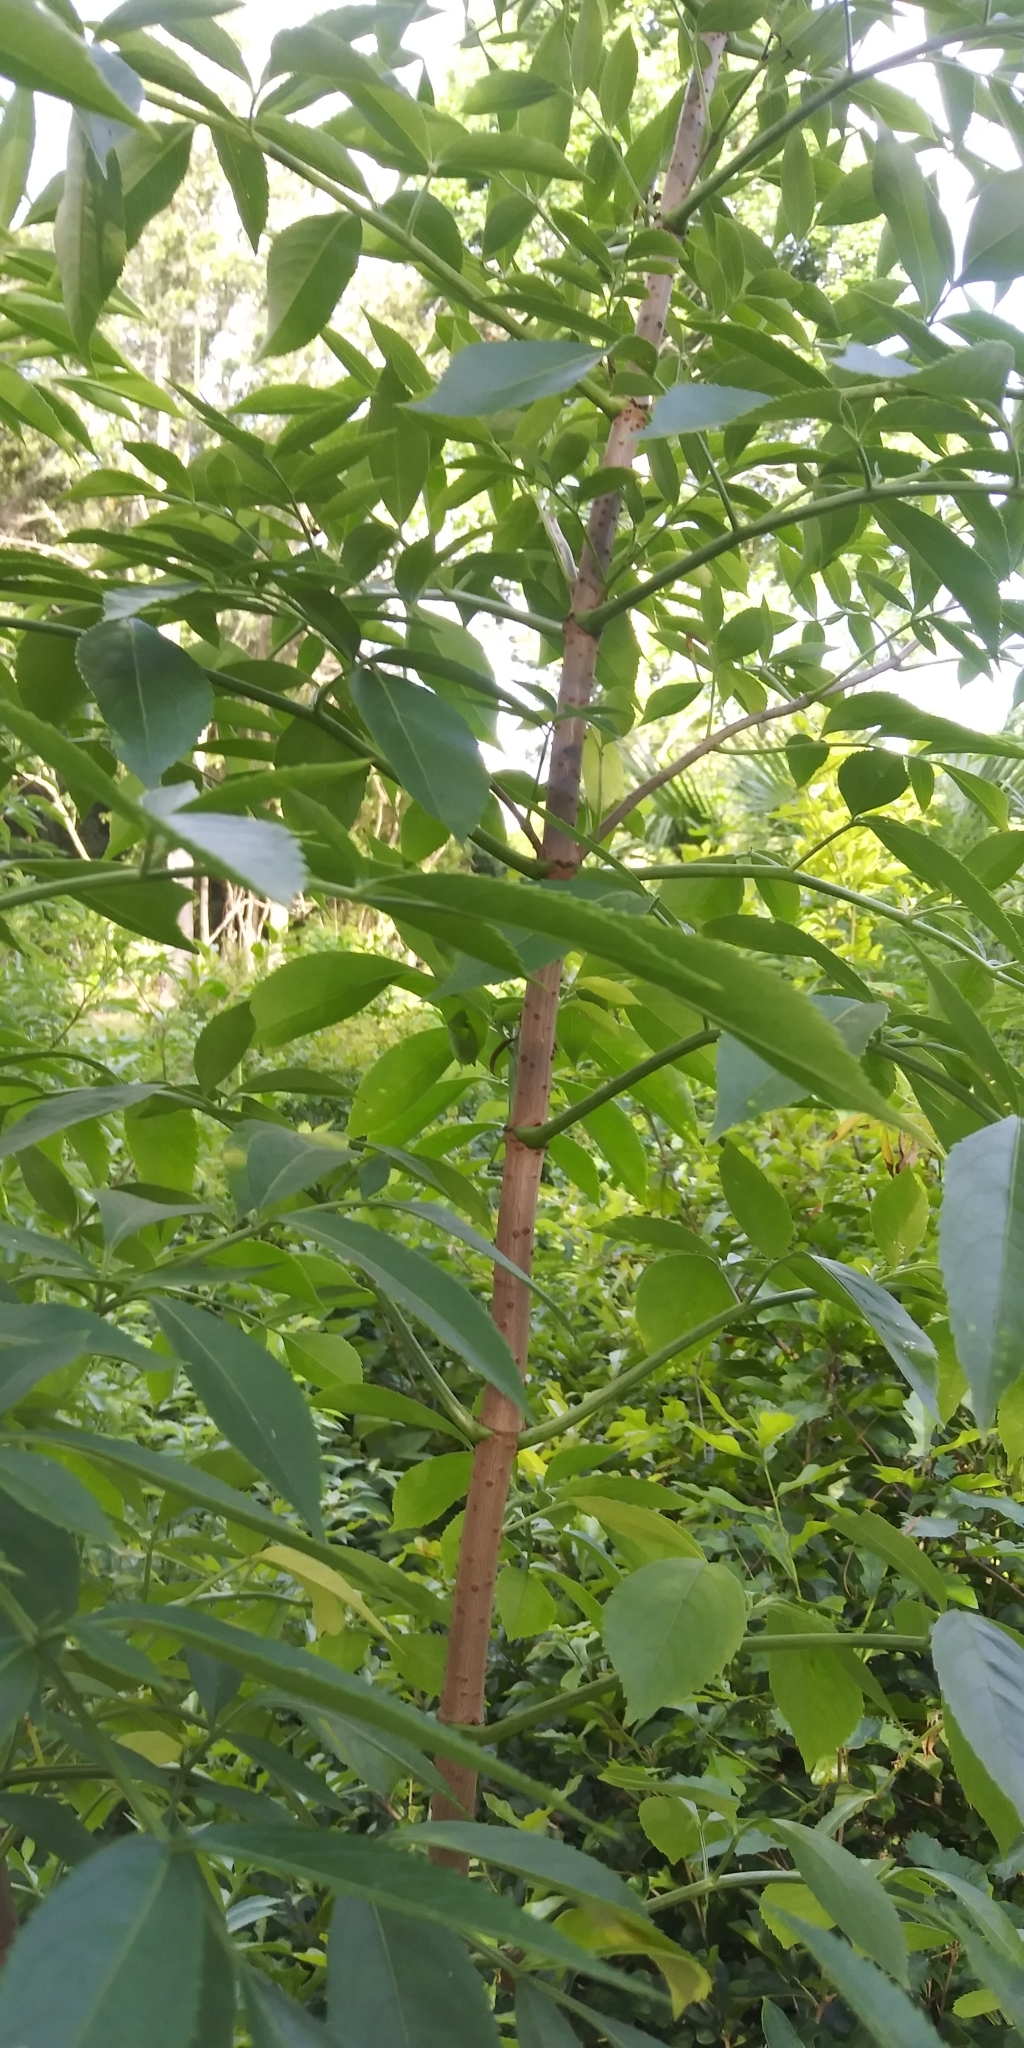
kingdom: Plantae
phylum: Tracheophyta
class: Magnoliopsida
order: Dipsacales
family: Viburnaceae
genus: Sambucus
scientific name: Sambucus canadensis
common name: American elder
